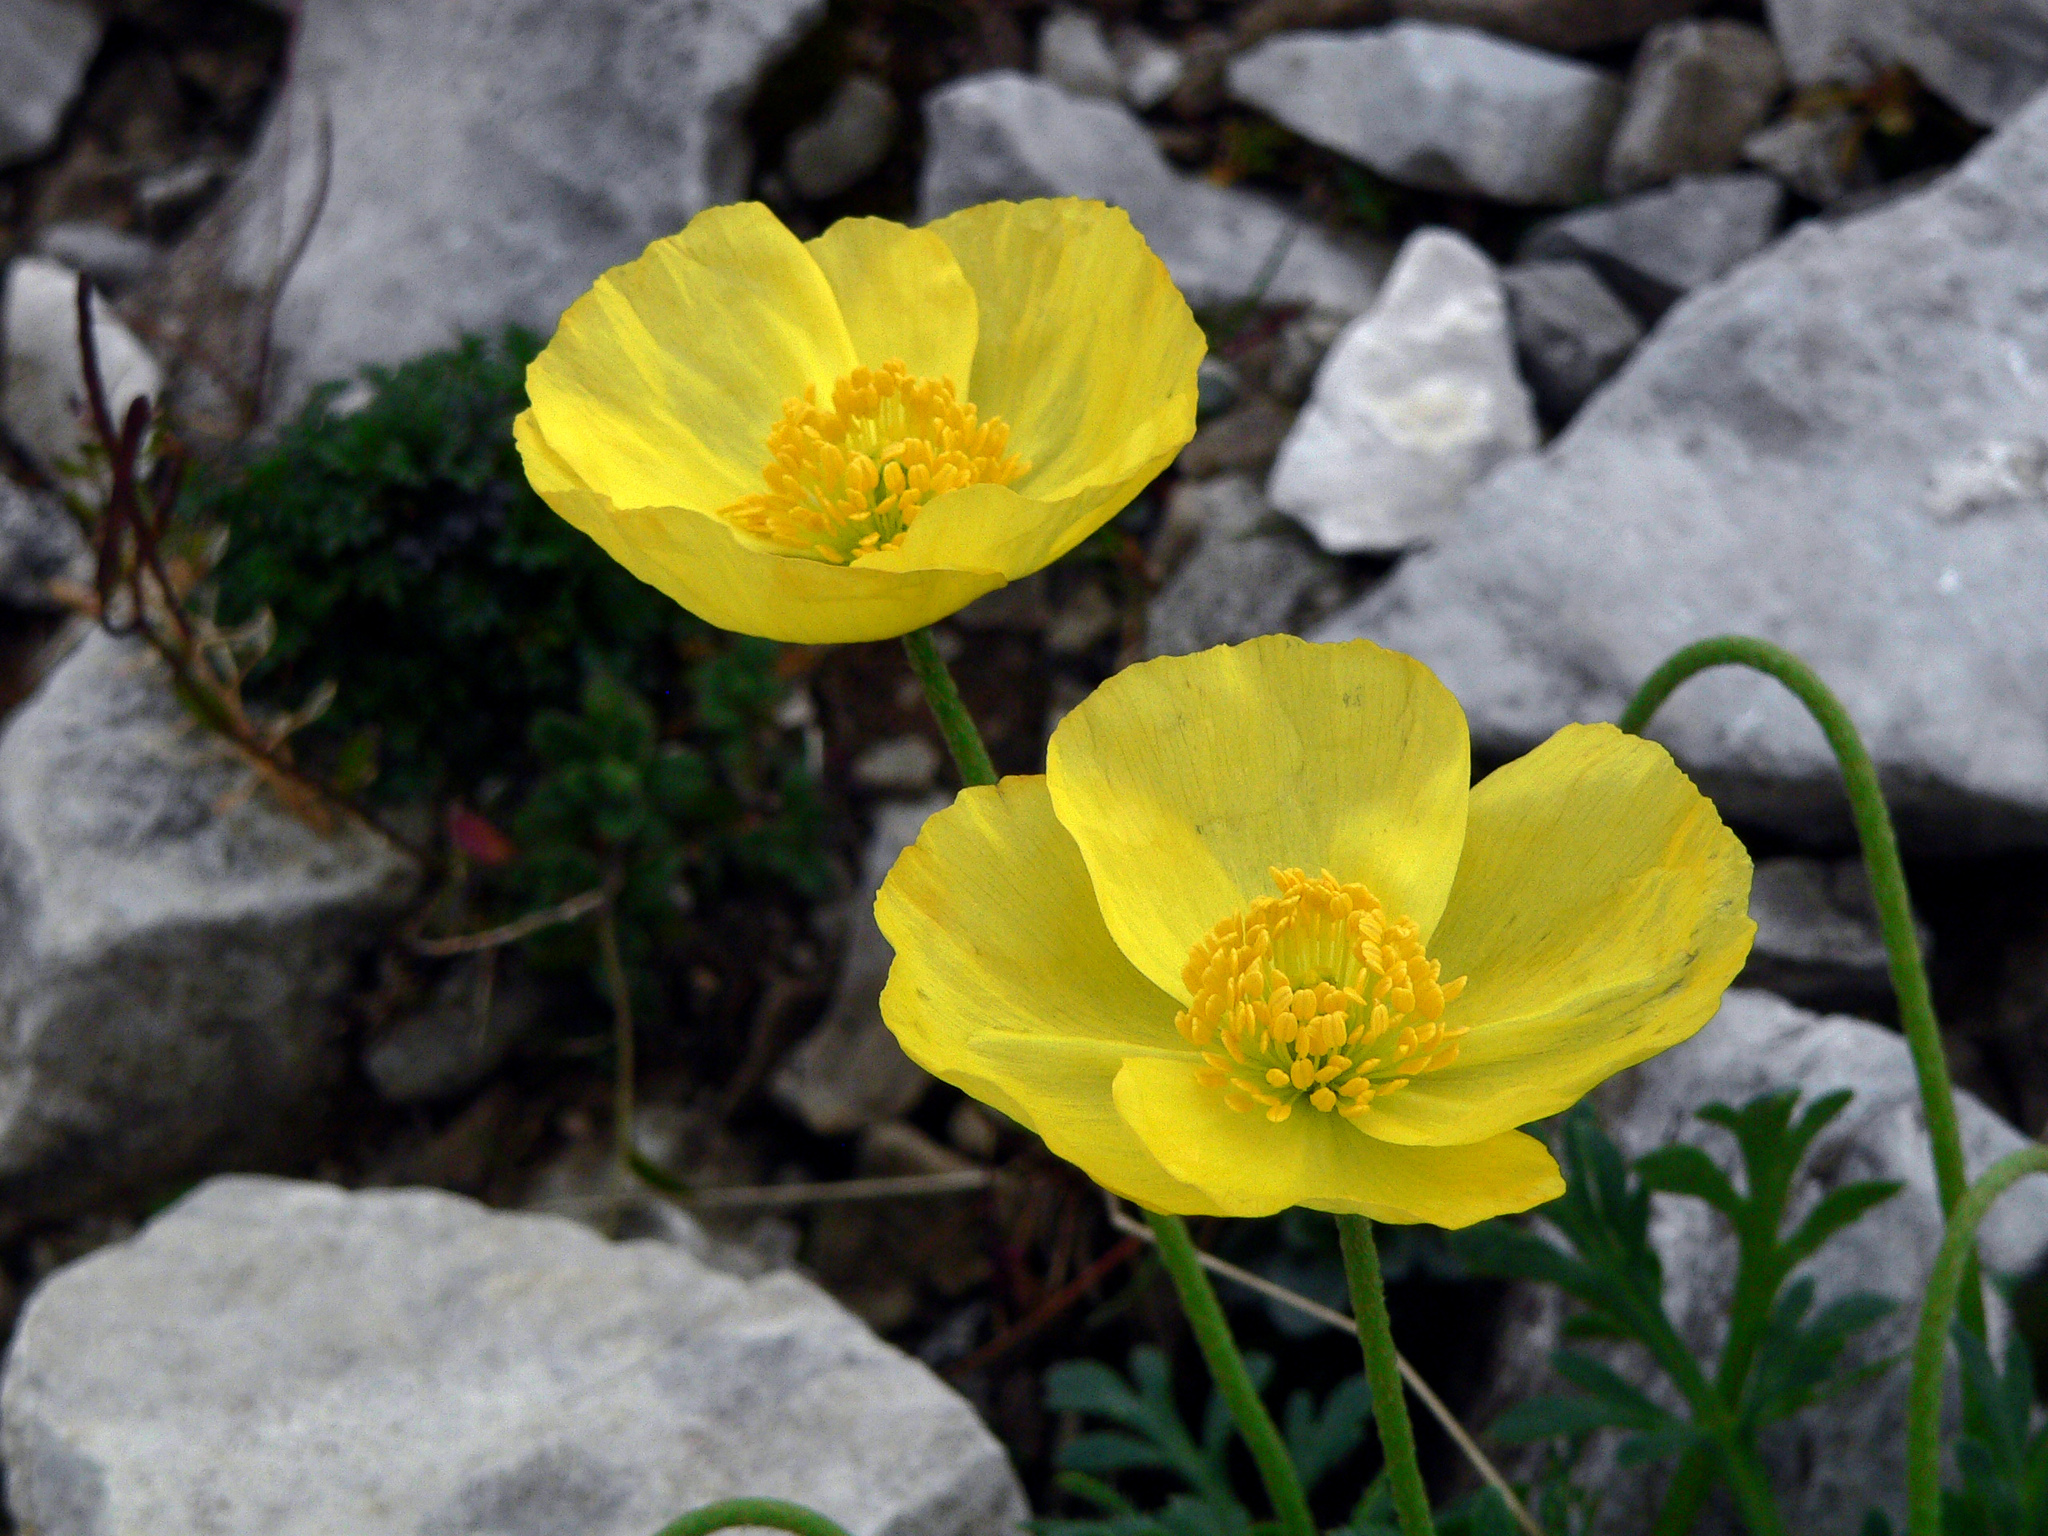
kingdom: Plantae
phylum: Tracheophyta
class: Magnoliopsida
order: Ranunculales
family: Papaveraceae
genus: Papaver
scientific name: Papaver alpinum
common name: Austrian poppy
